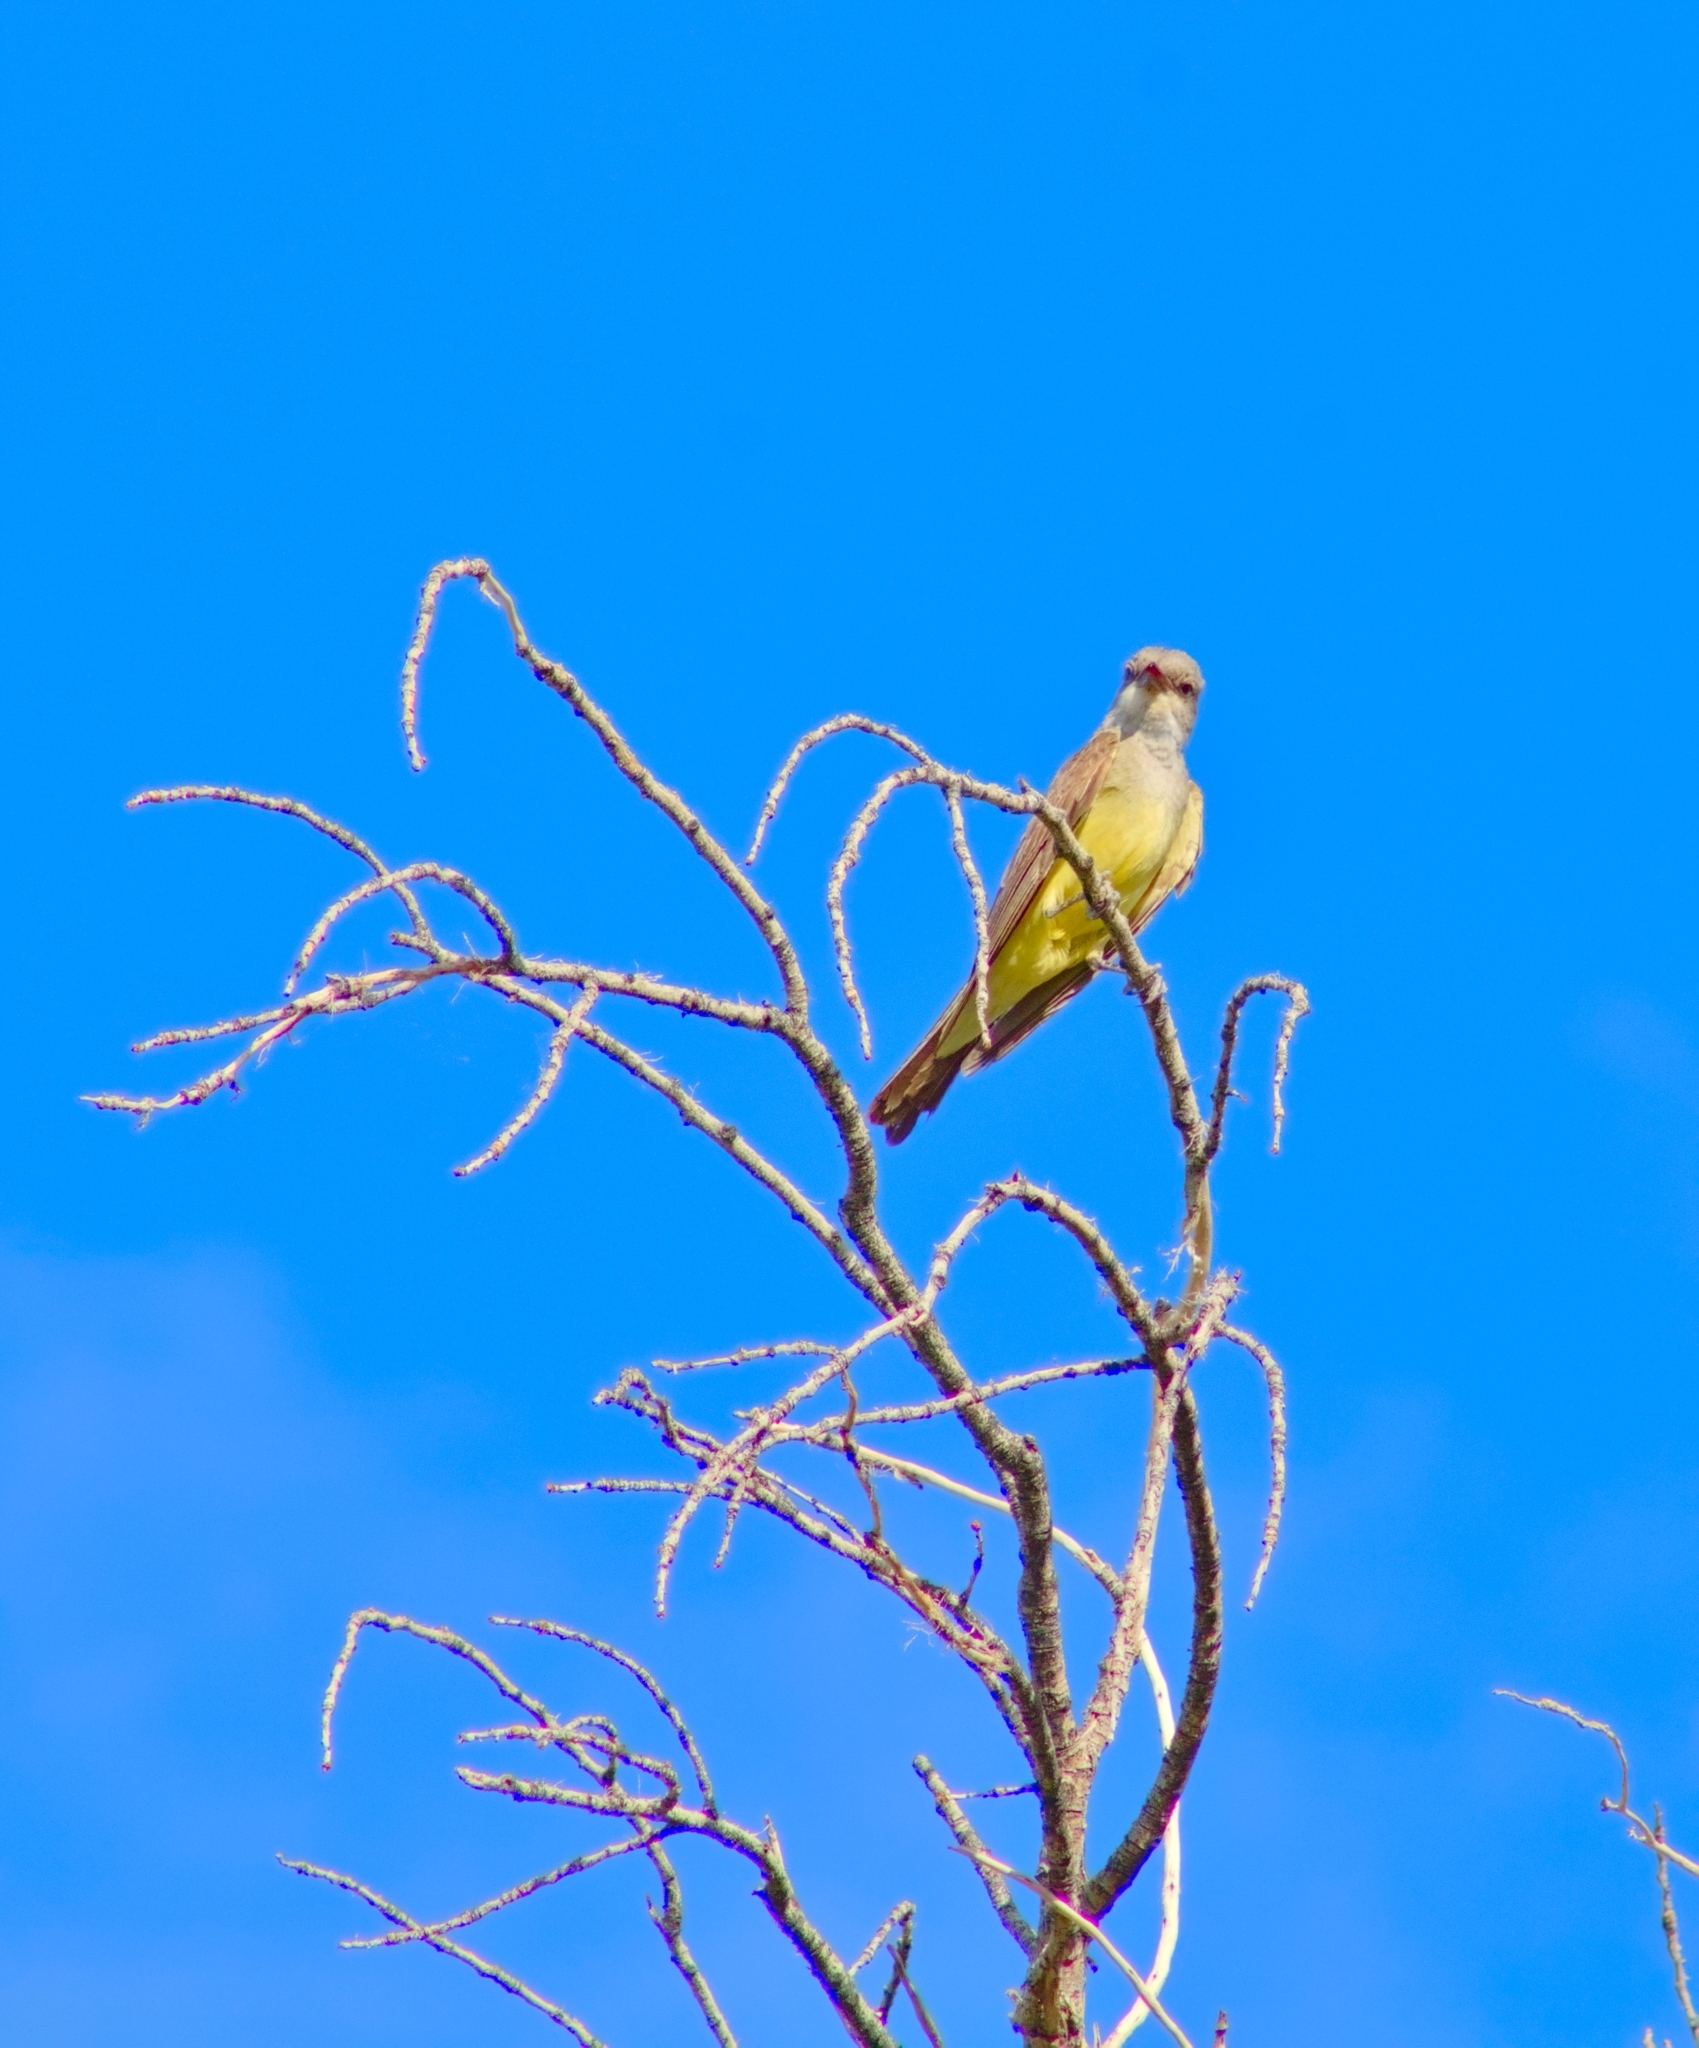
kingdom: Animalia
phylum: Chordata
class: Aves
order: Passeriformes
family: Tyrannidae
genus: Tyrannus
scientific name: Tyrannus verticalis
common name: Western kingbird
